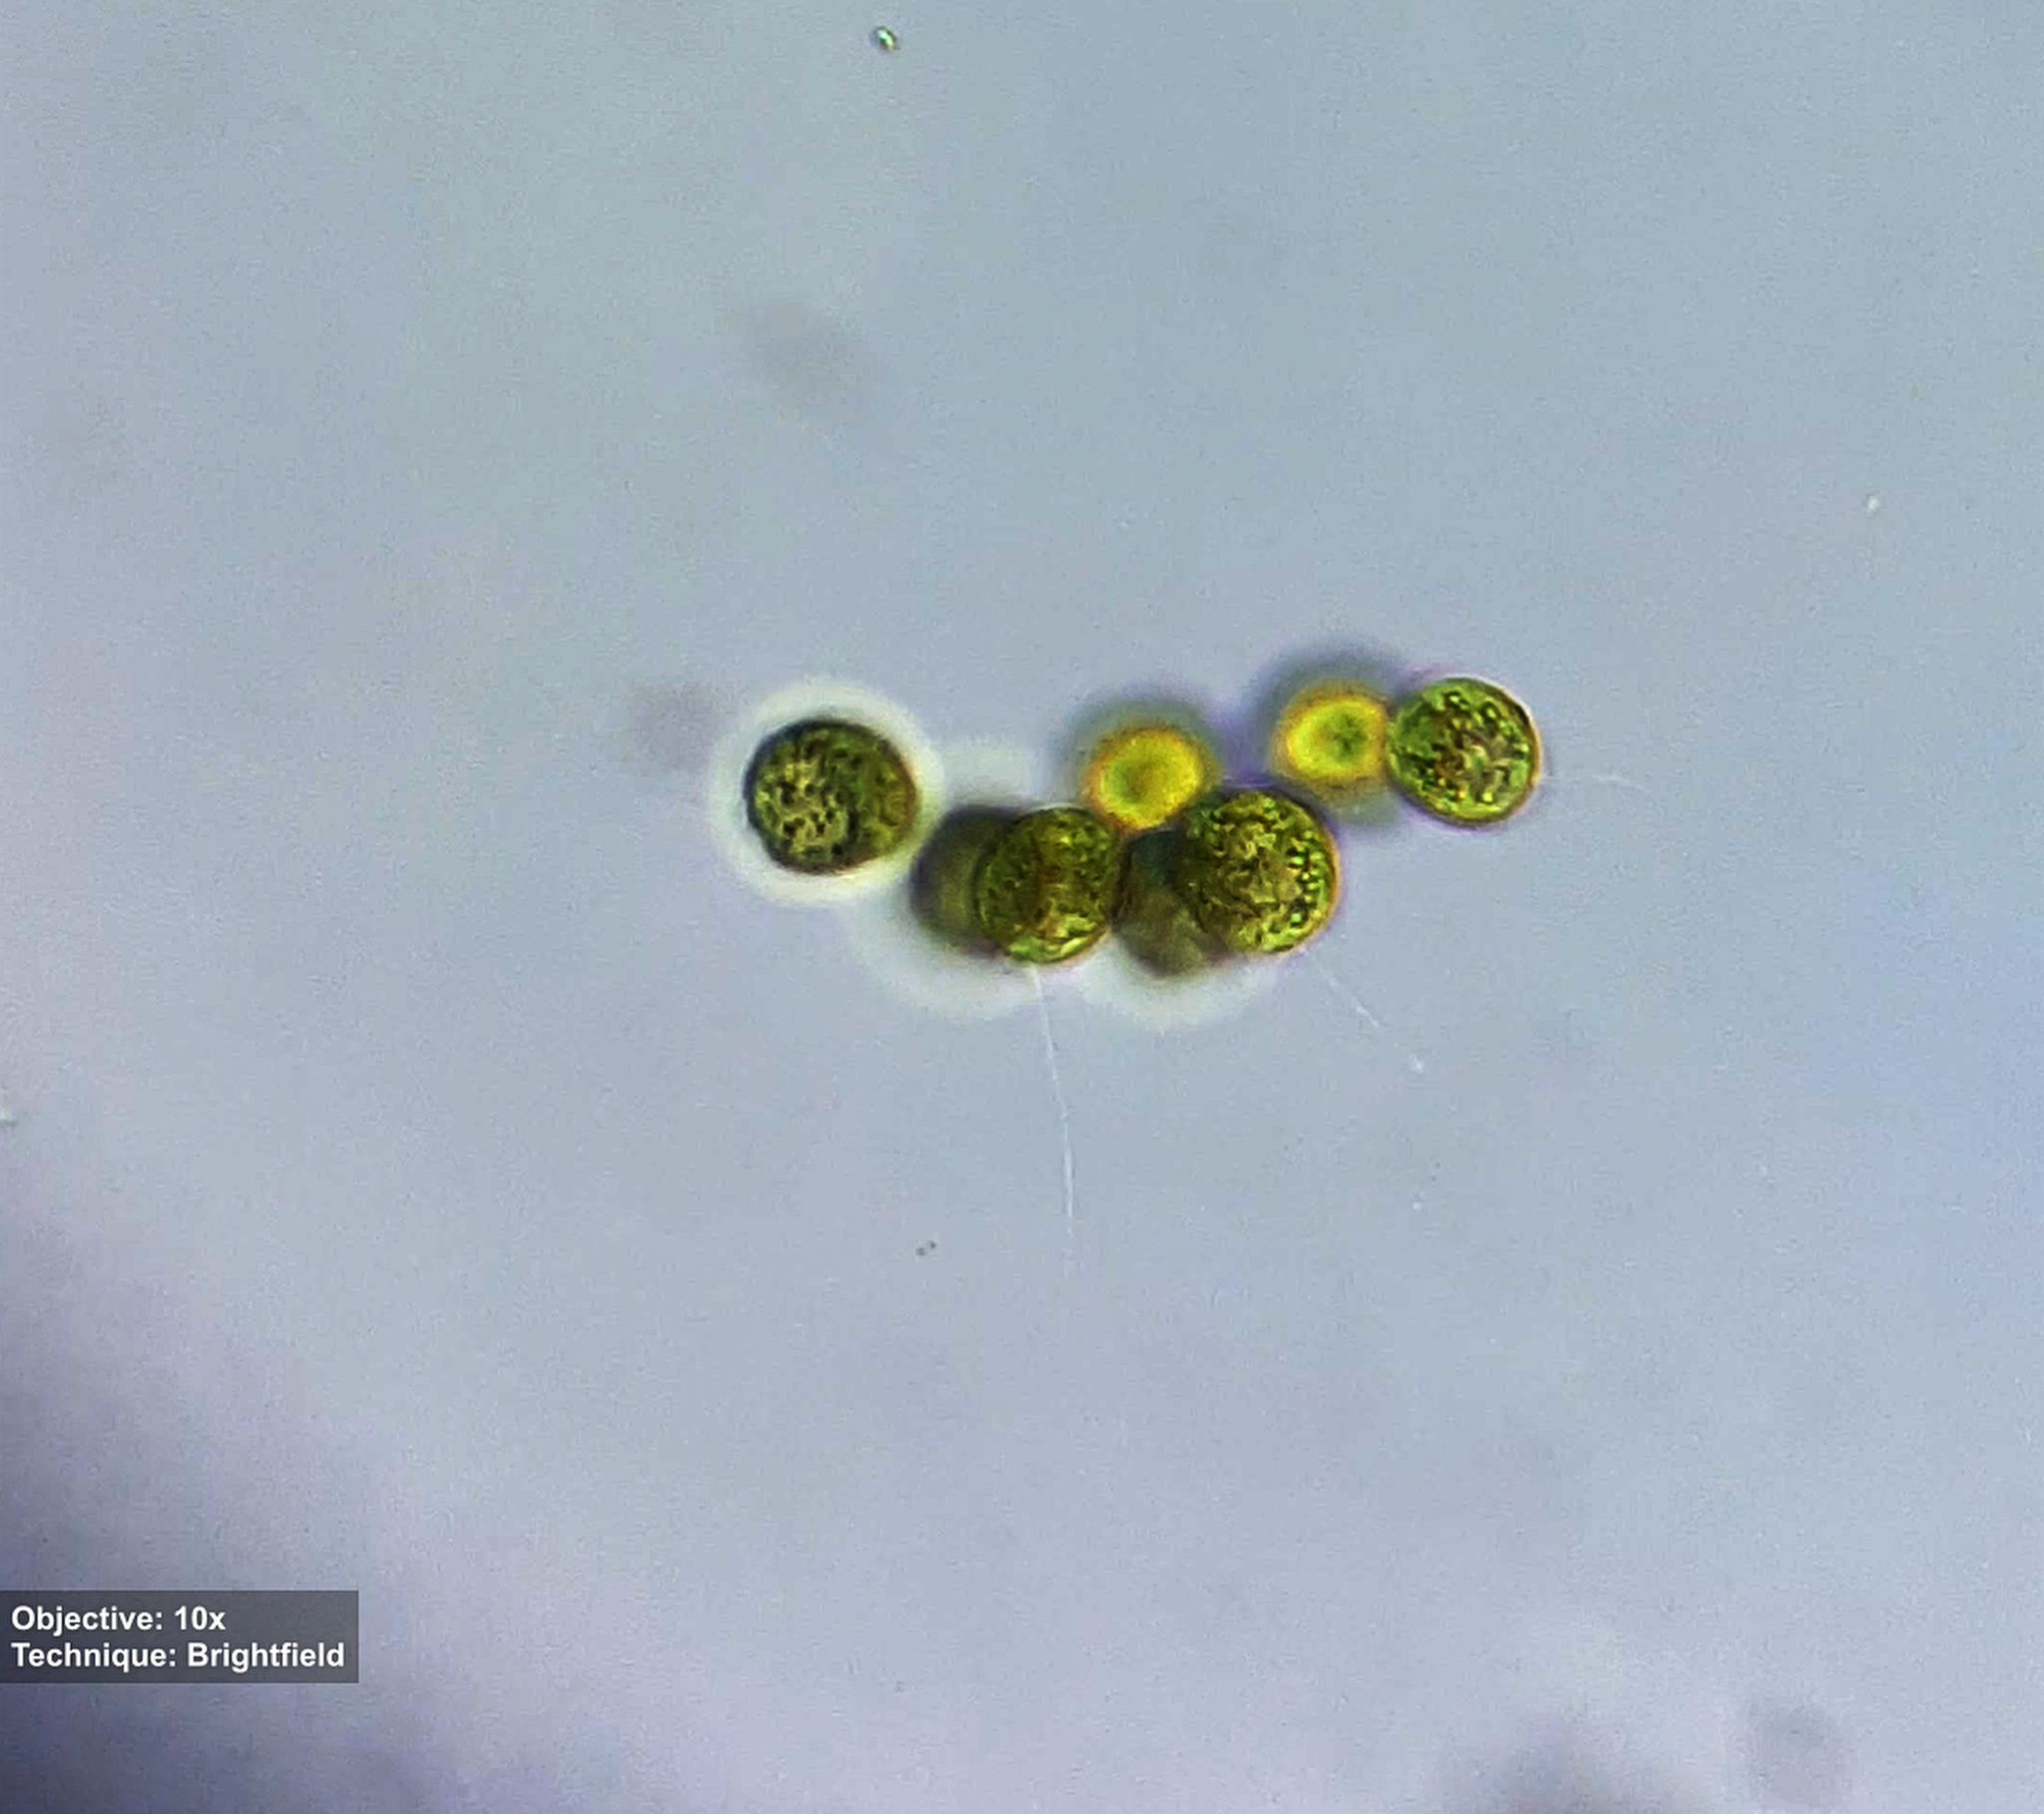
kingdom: Plantae
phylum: Chlorophyta
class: Chlorophyceae
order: Volvocales
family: Goniaceae
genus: Gonium
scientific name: Gonium
